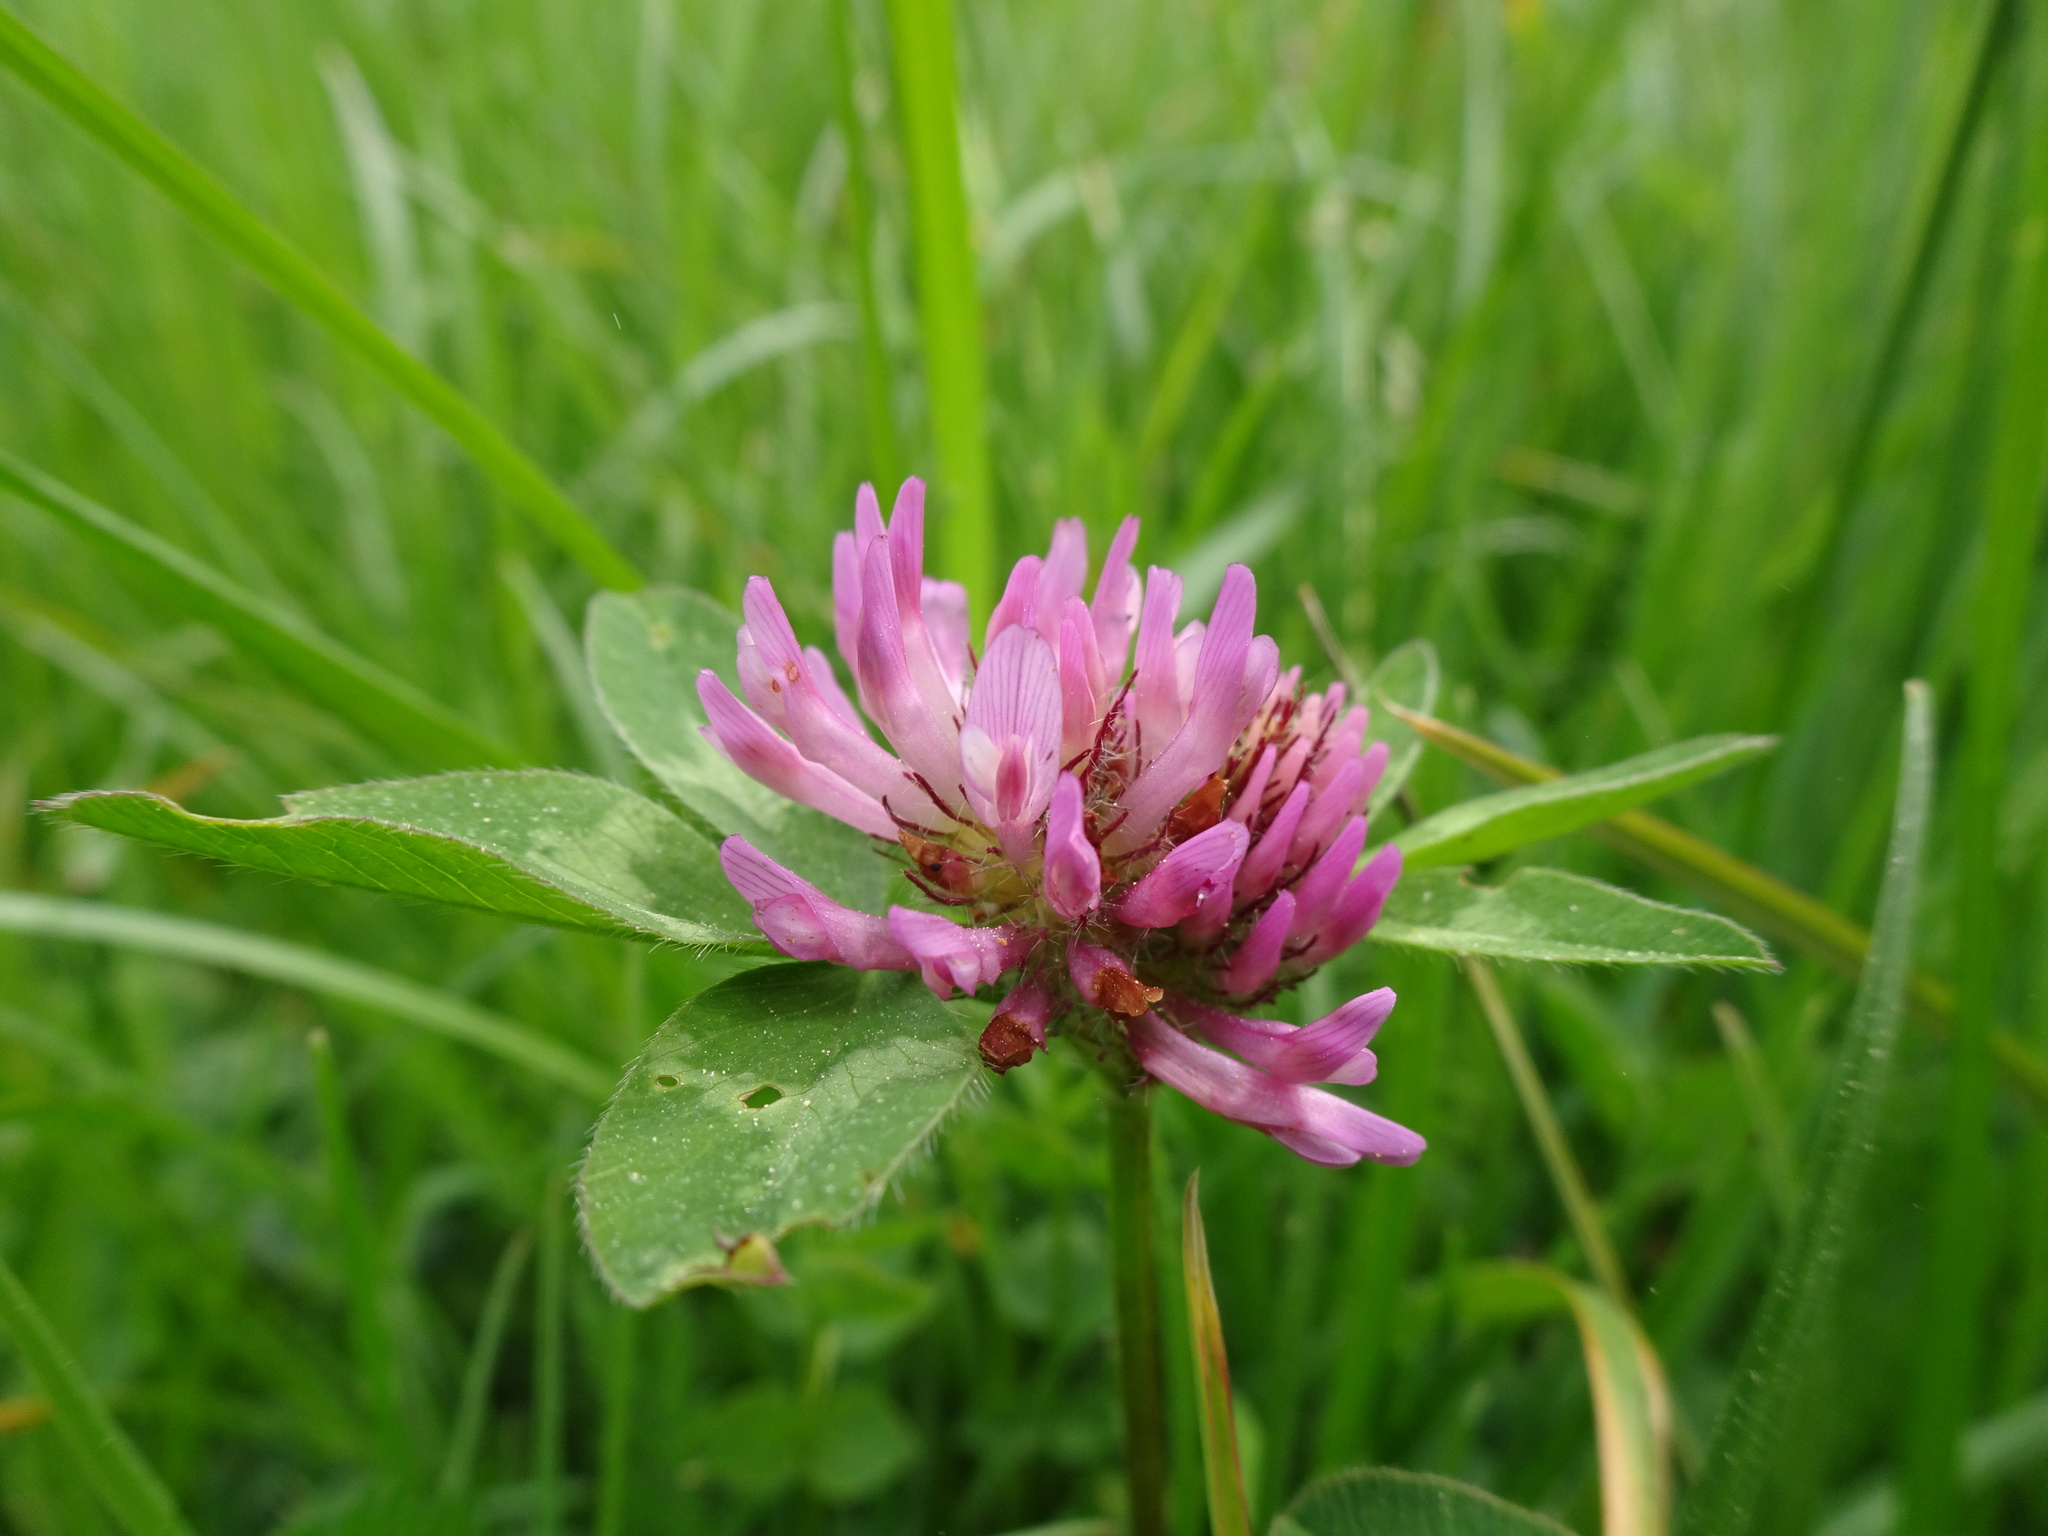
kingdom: Plantae
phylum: Tracheophyta
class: Magnoliopsida
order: Fabales
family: Fabaceae
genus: Trifolium
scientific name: Trifolium pratense
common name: Red clover
